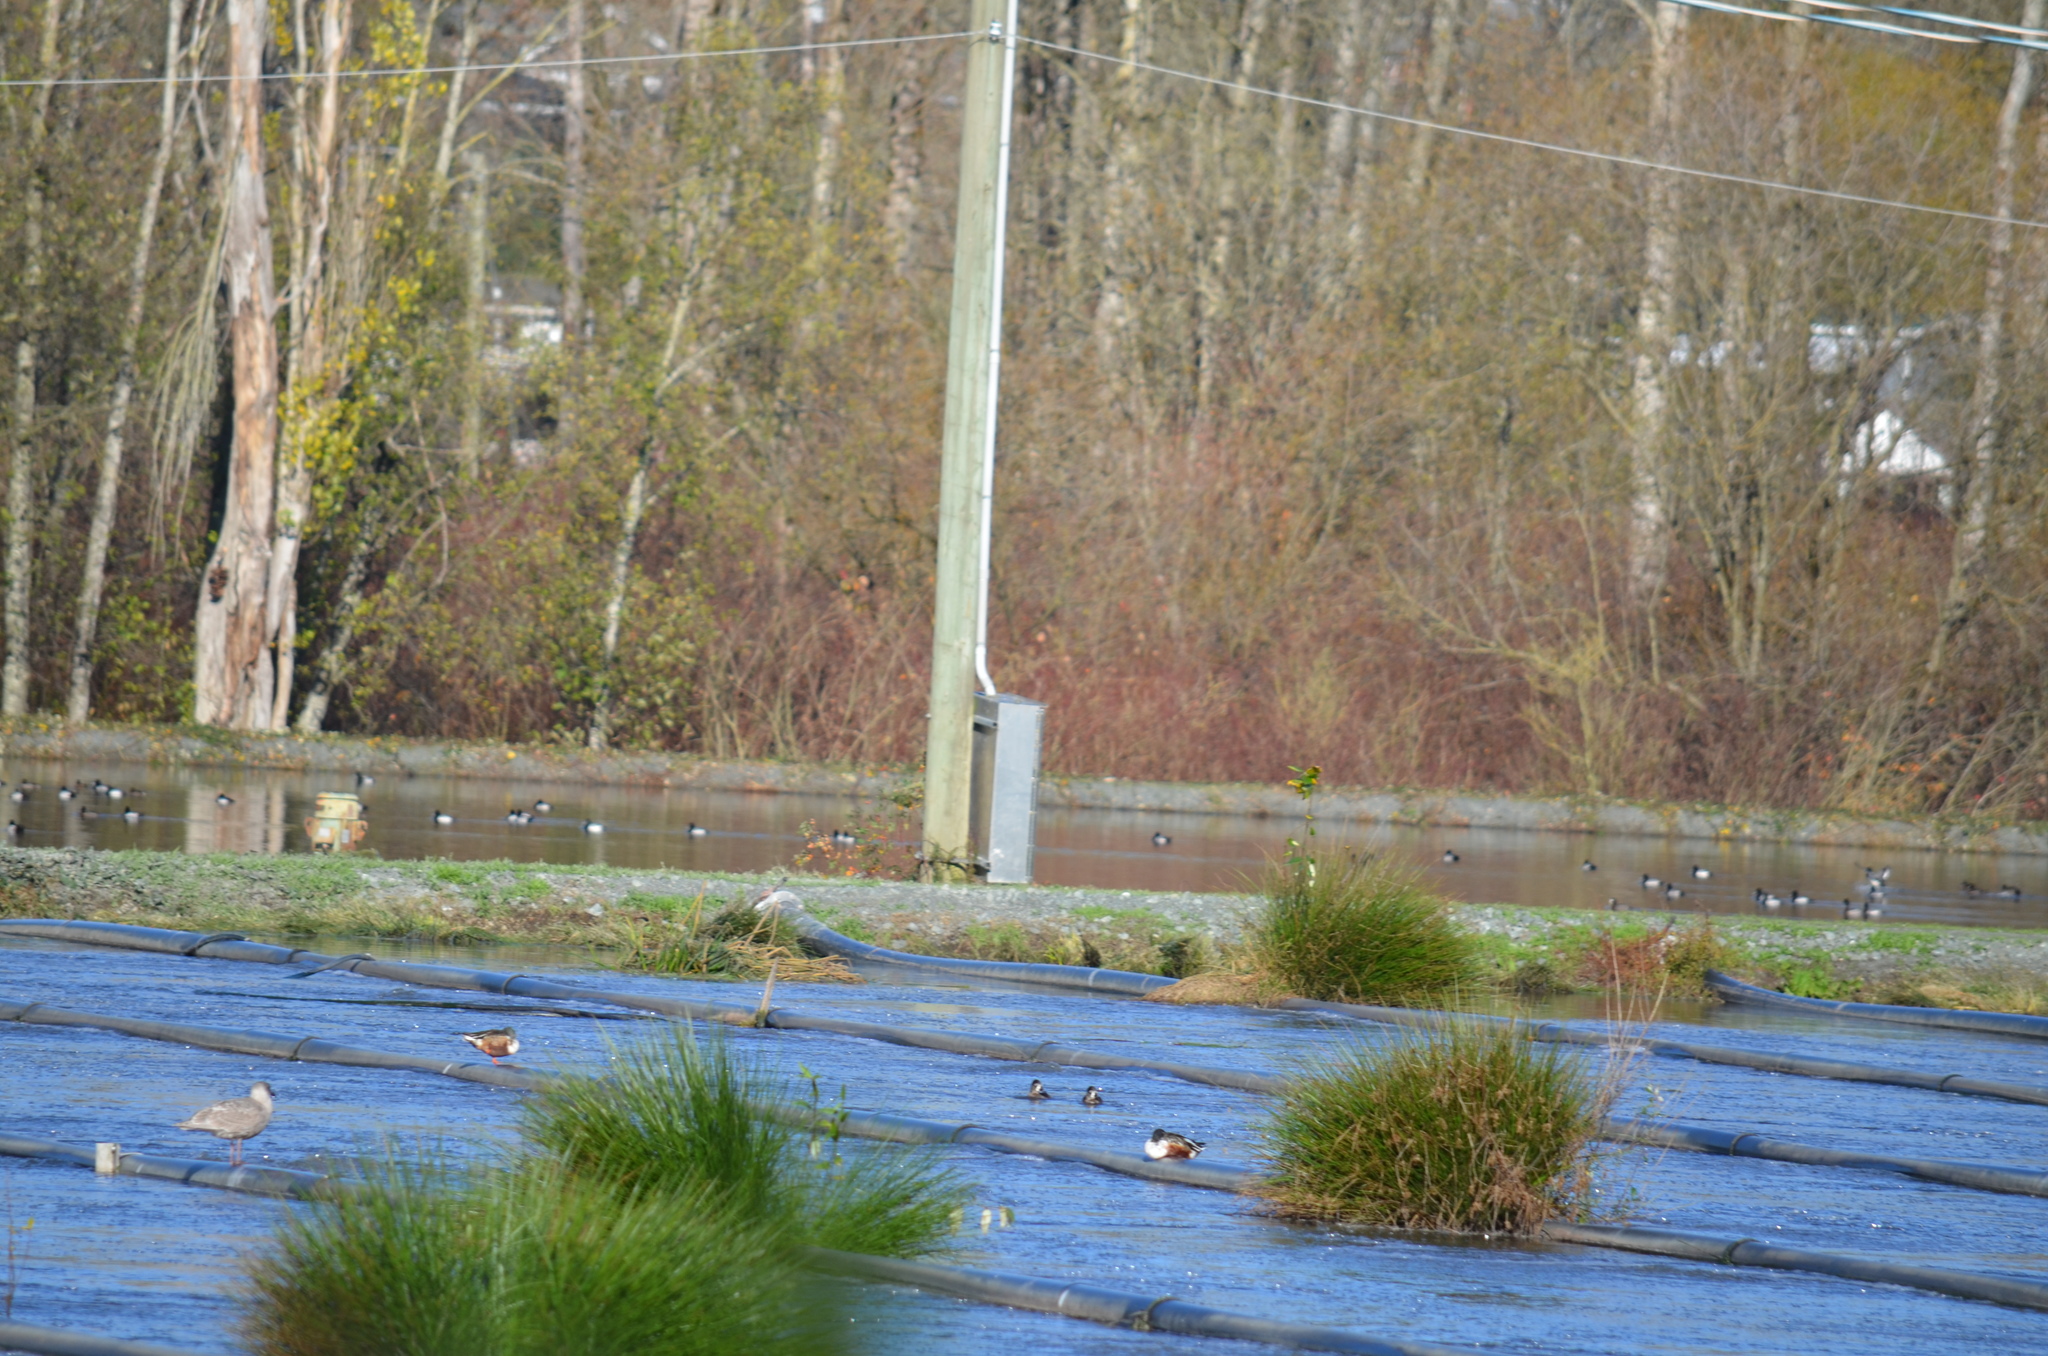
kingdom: Animalia
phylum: Chordata
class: Aves
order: Anseriformes
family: Anatidae
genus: Spatula
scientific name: Spatula clypeata
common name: Northern shoveler
